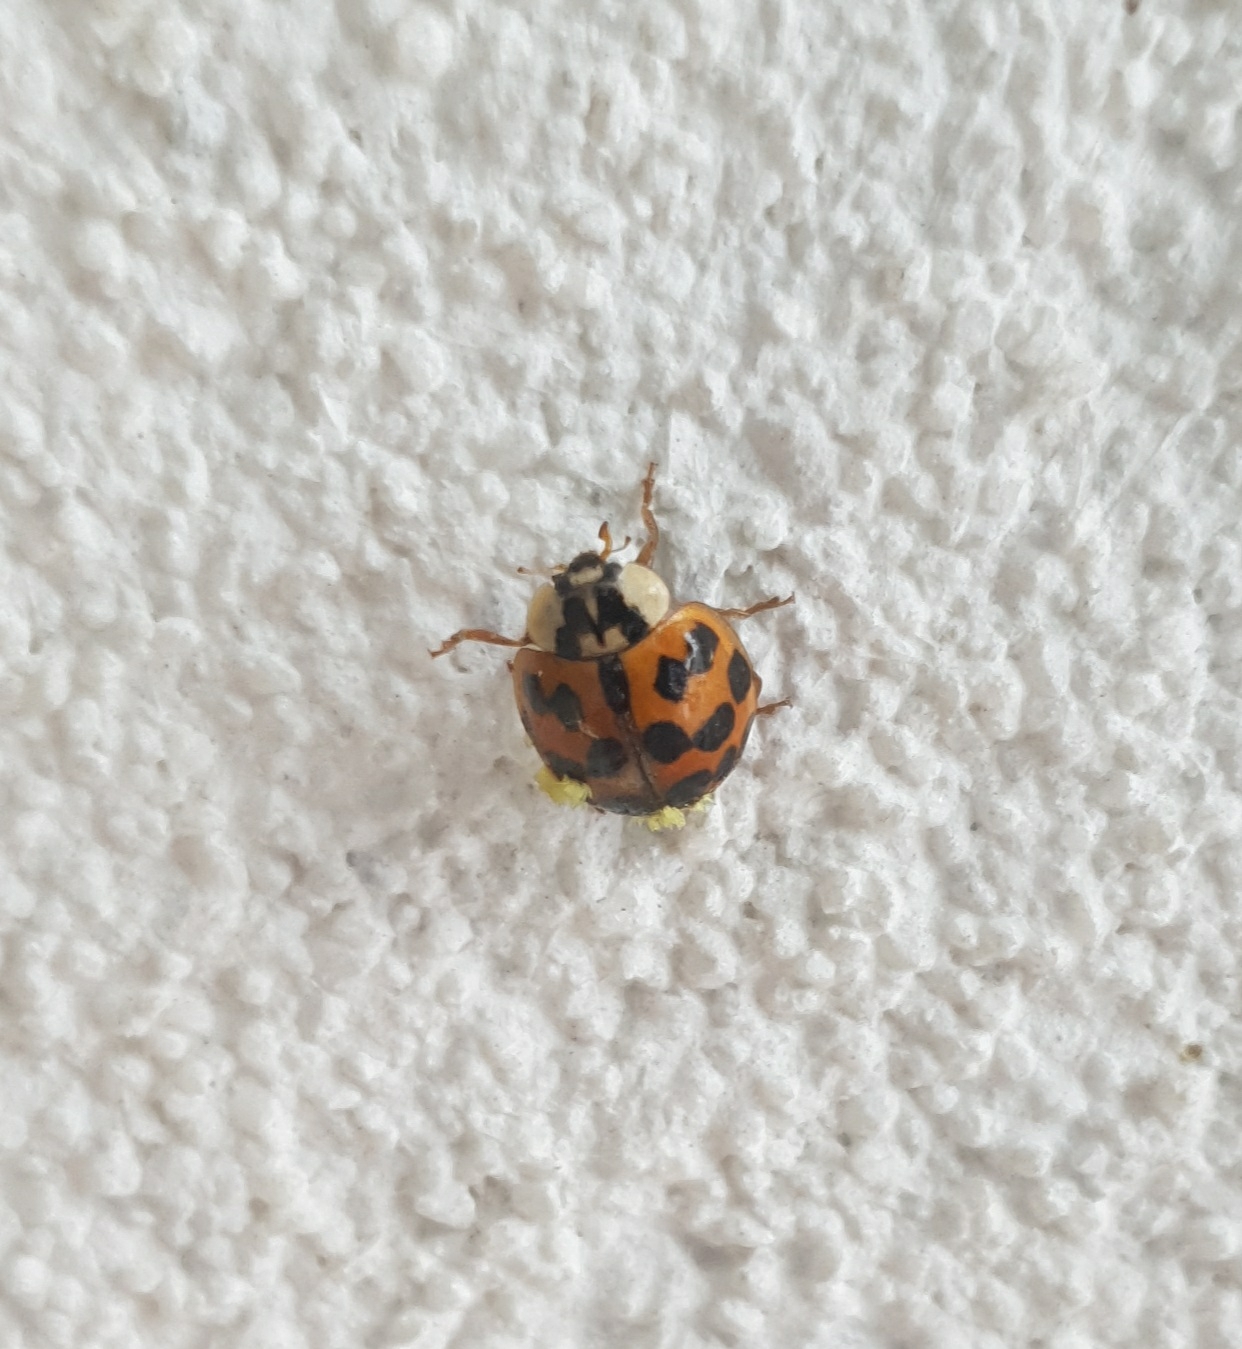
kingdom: Animalia
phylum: Arthropoda
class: Insecta
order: Coleoptera
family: Coccinellidae
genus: Harmonia
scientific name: Harmonia axyridis
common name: Harlequin ladybird
